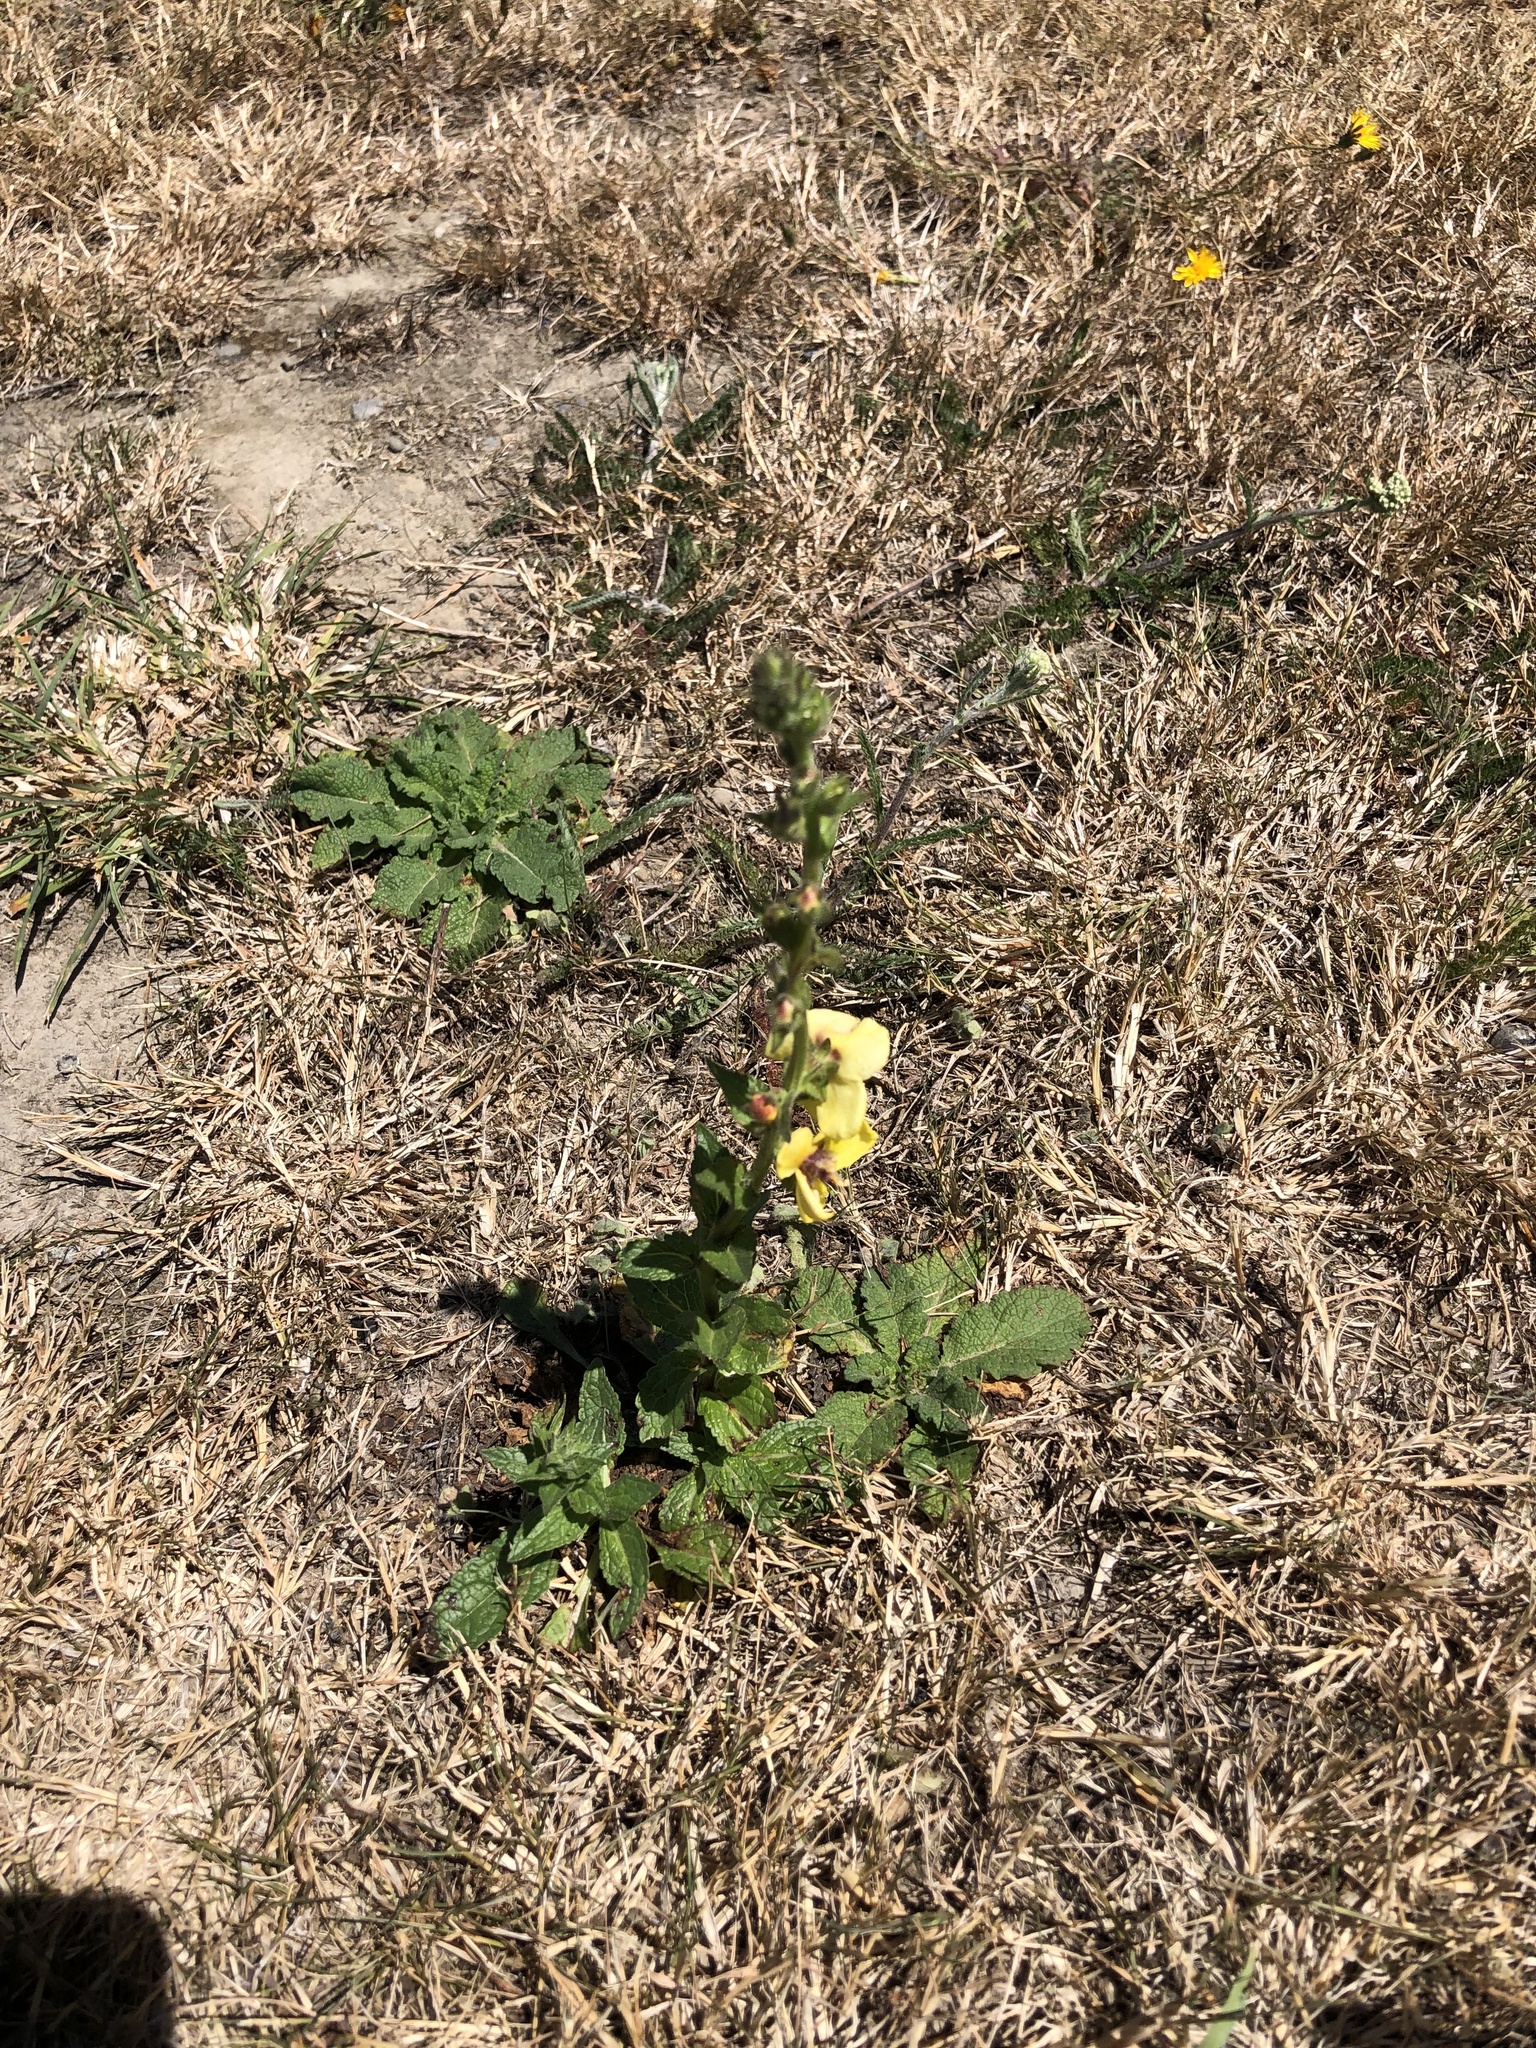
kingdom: Plantae
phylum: Tracheophyta
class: Magnoliopsida
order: Lamiales
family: Scrophulariaceae
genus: Verbascum
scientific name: Verbascum virgatum
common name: Twiggy mullein
